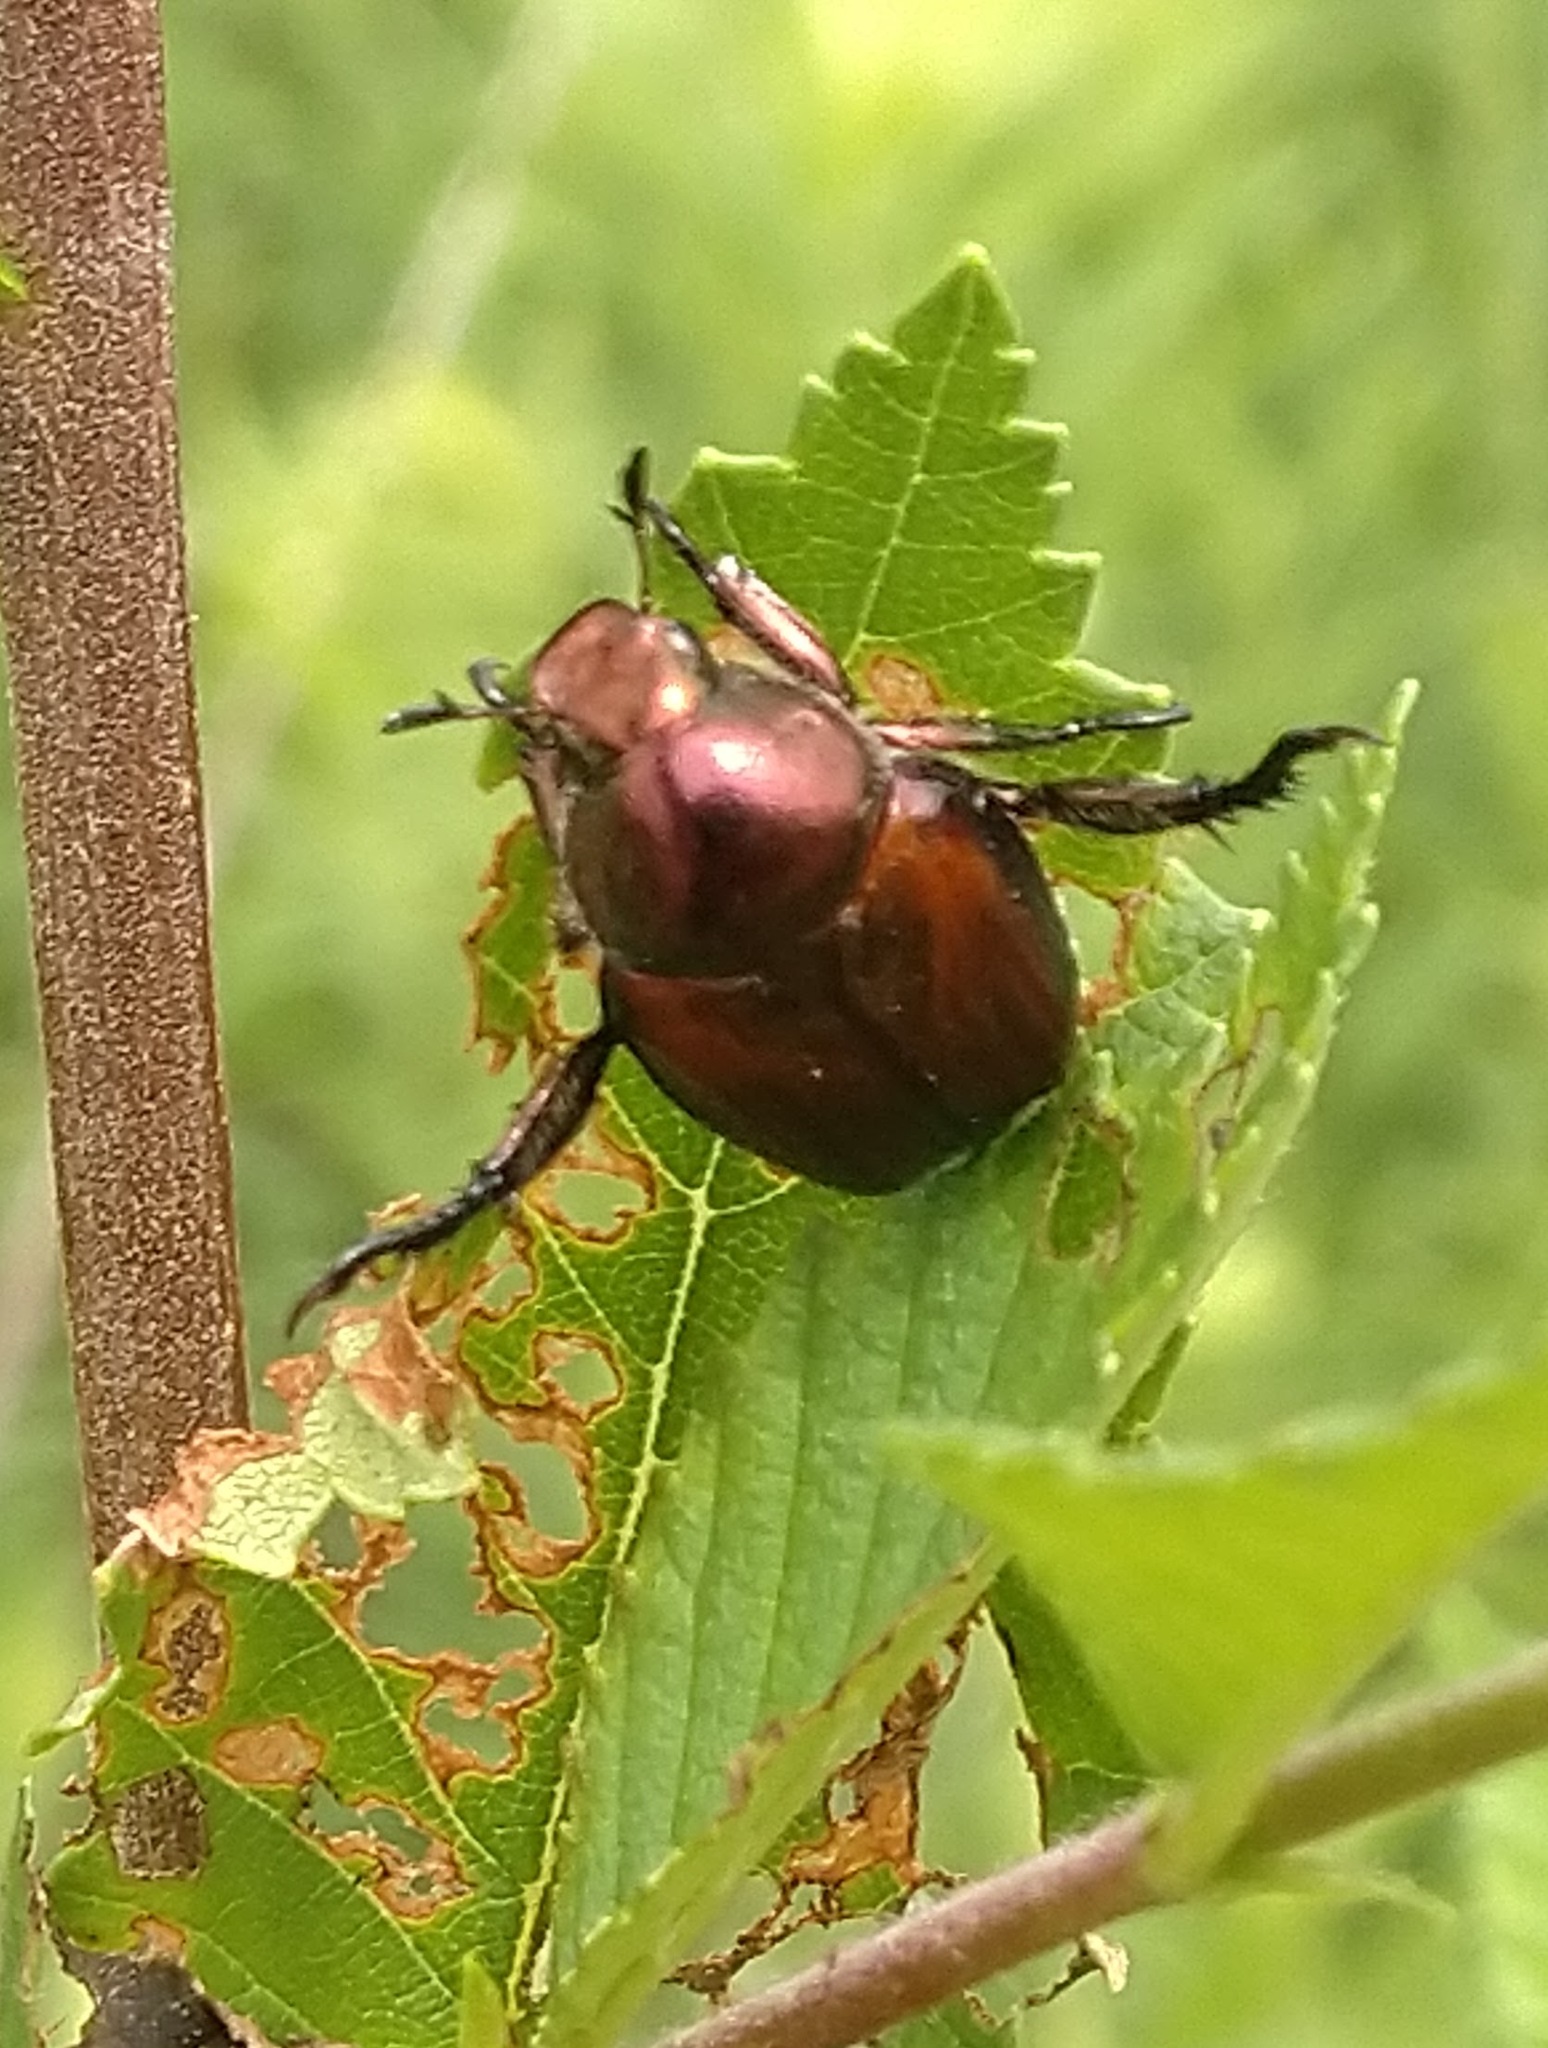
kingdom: Animalia
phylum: Arthropoda
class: Insecta
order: Coleoptera
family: Scarabaeidae
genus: Popillia
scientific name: Popillia japonica
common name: Japanese beetle
